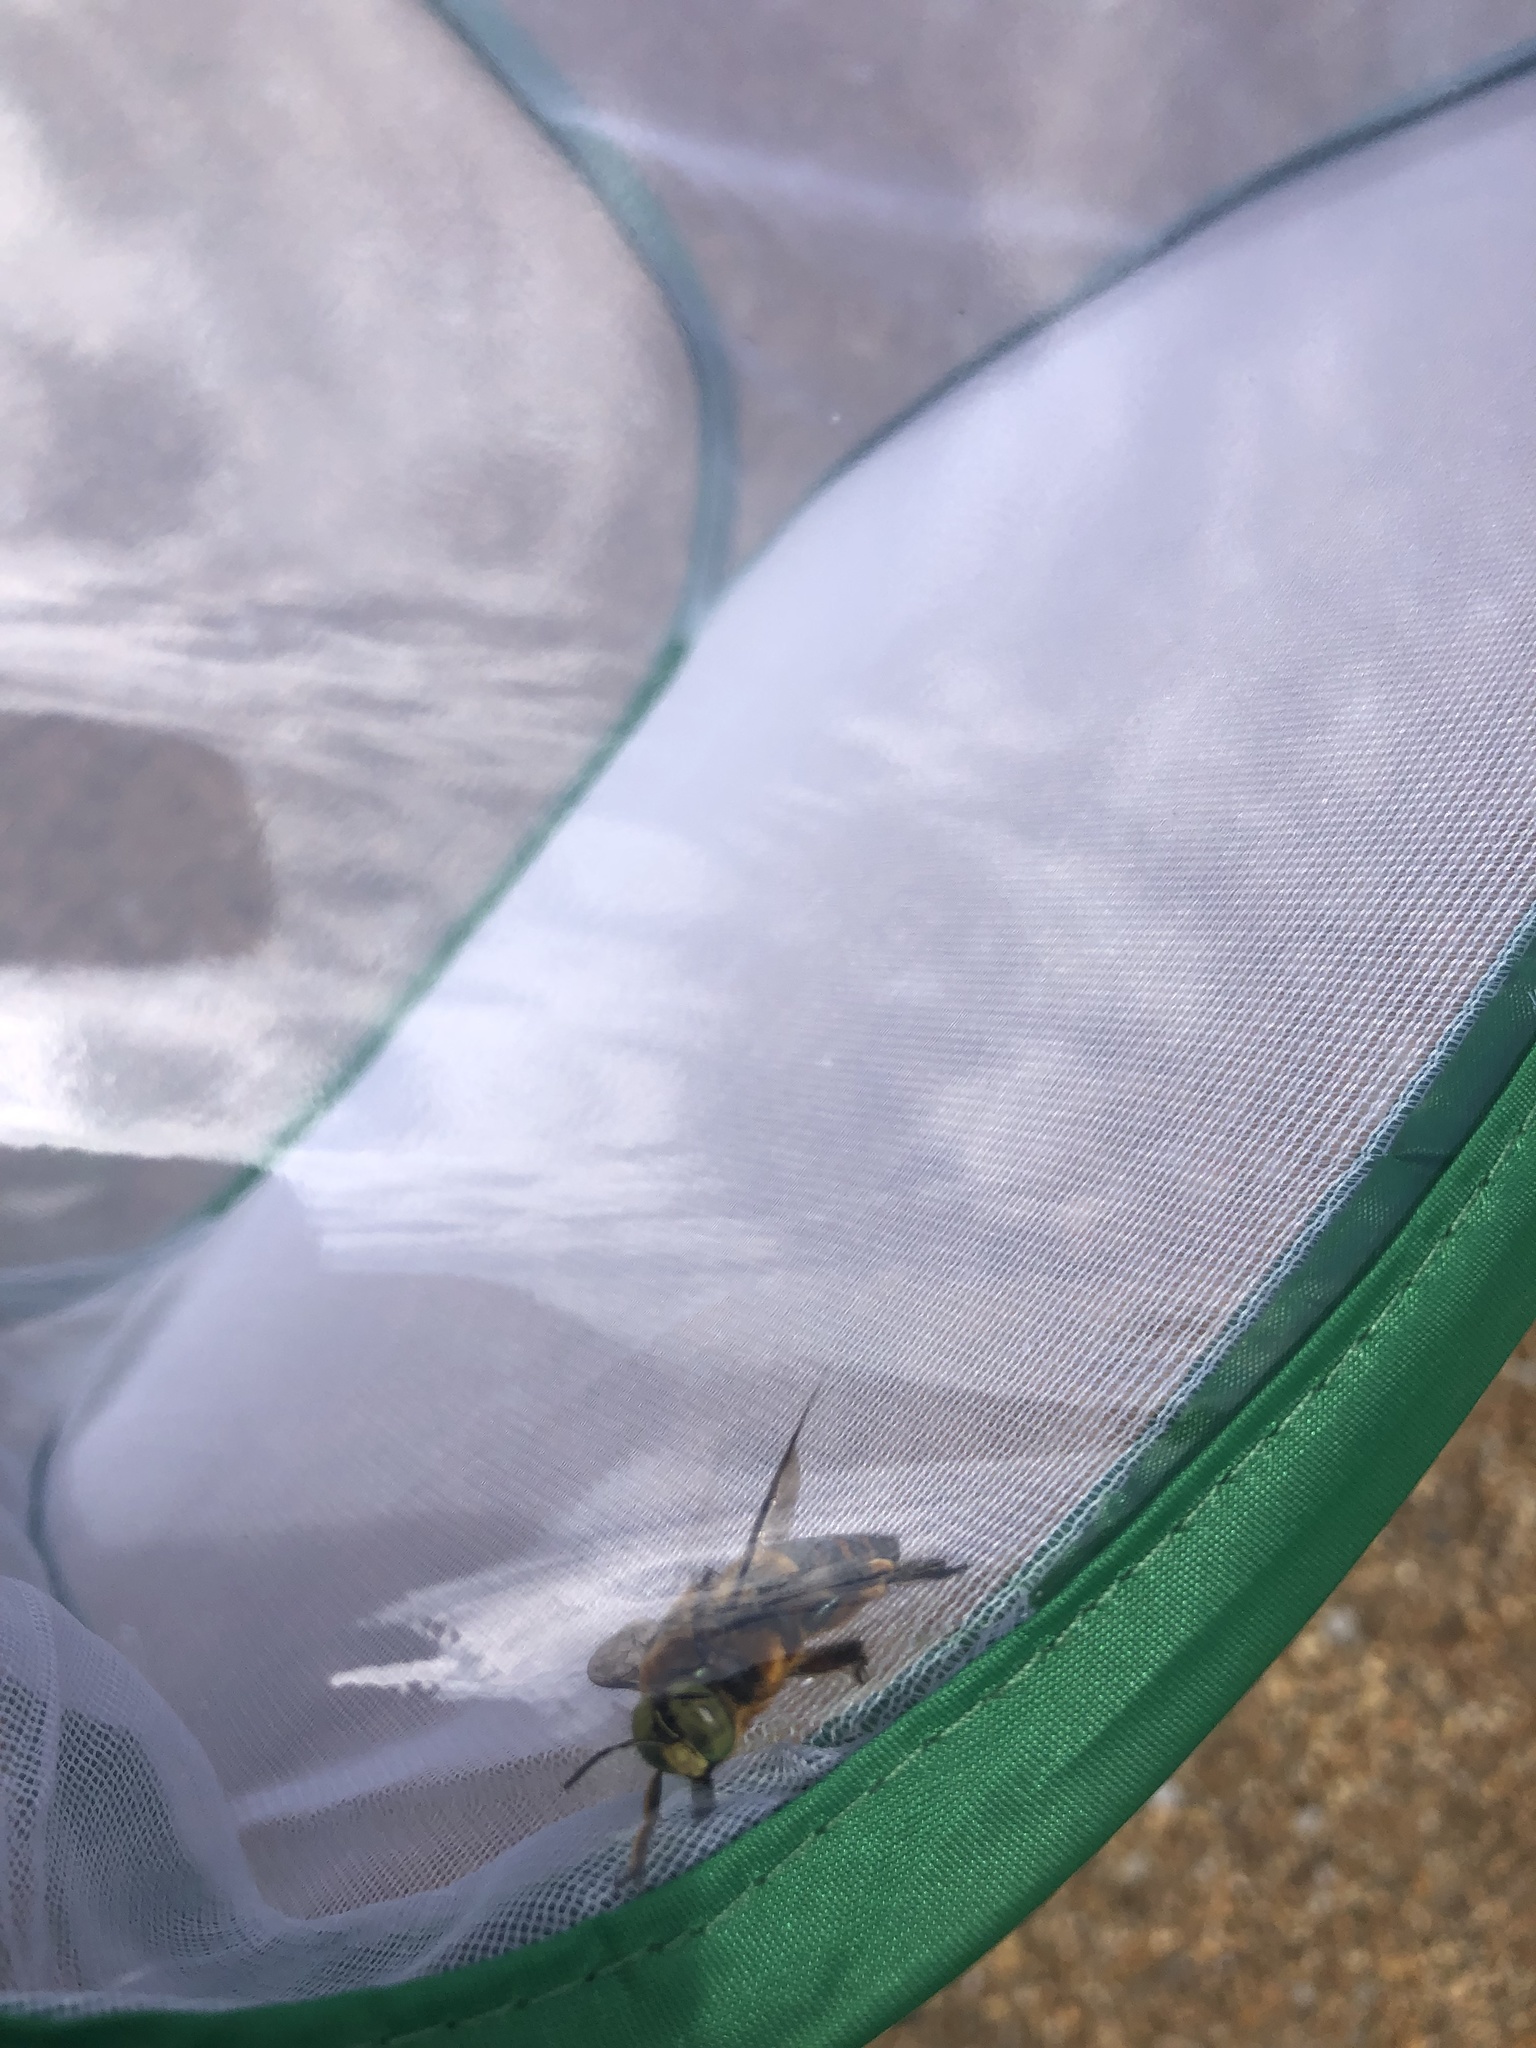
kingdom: Animalia
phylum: Arthropoda
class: Insecta
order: Hymenoptera
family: Apidae
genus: Xylocopa
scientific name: Xylocopa micans
